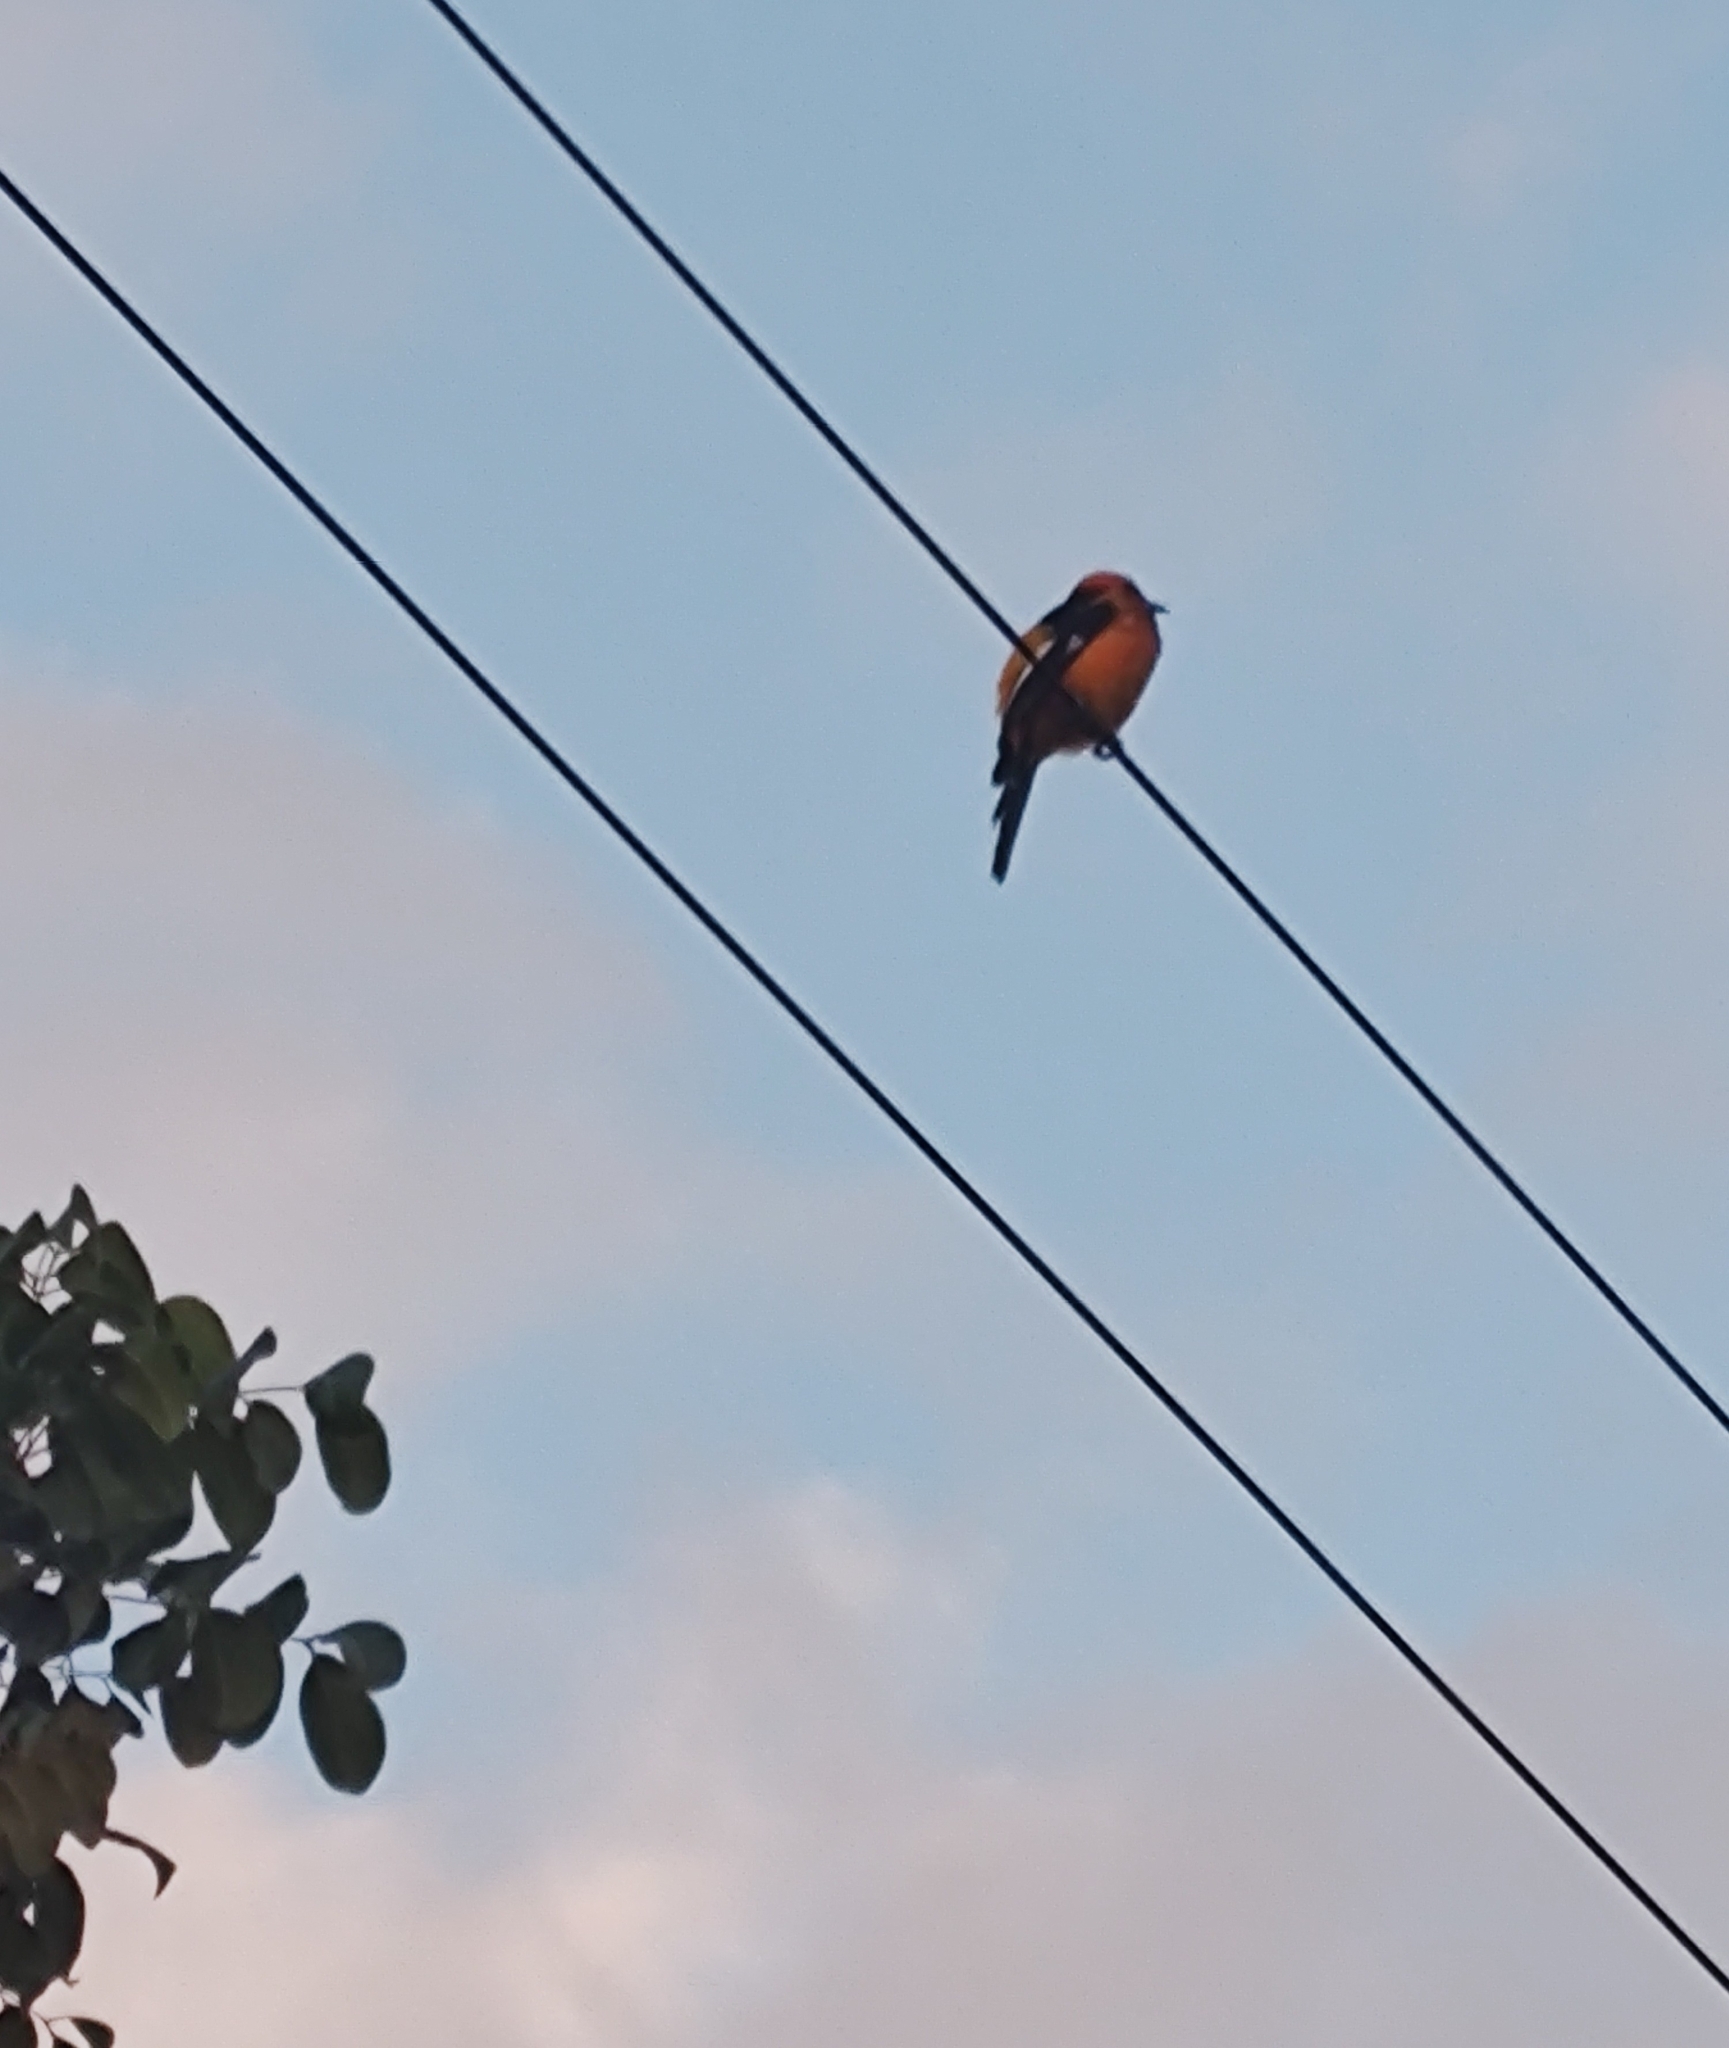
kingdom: Animalia
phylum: Chordata
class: Aves
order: Passeriformes
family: Icteridae
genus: Icterus
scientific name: Icterus pectoralis
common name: Spot-breasted oriole
